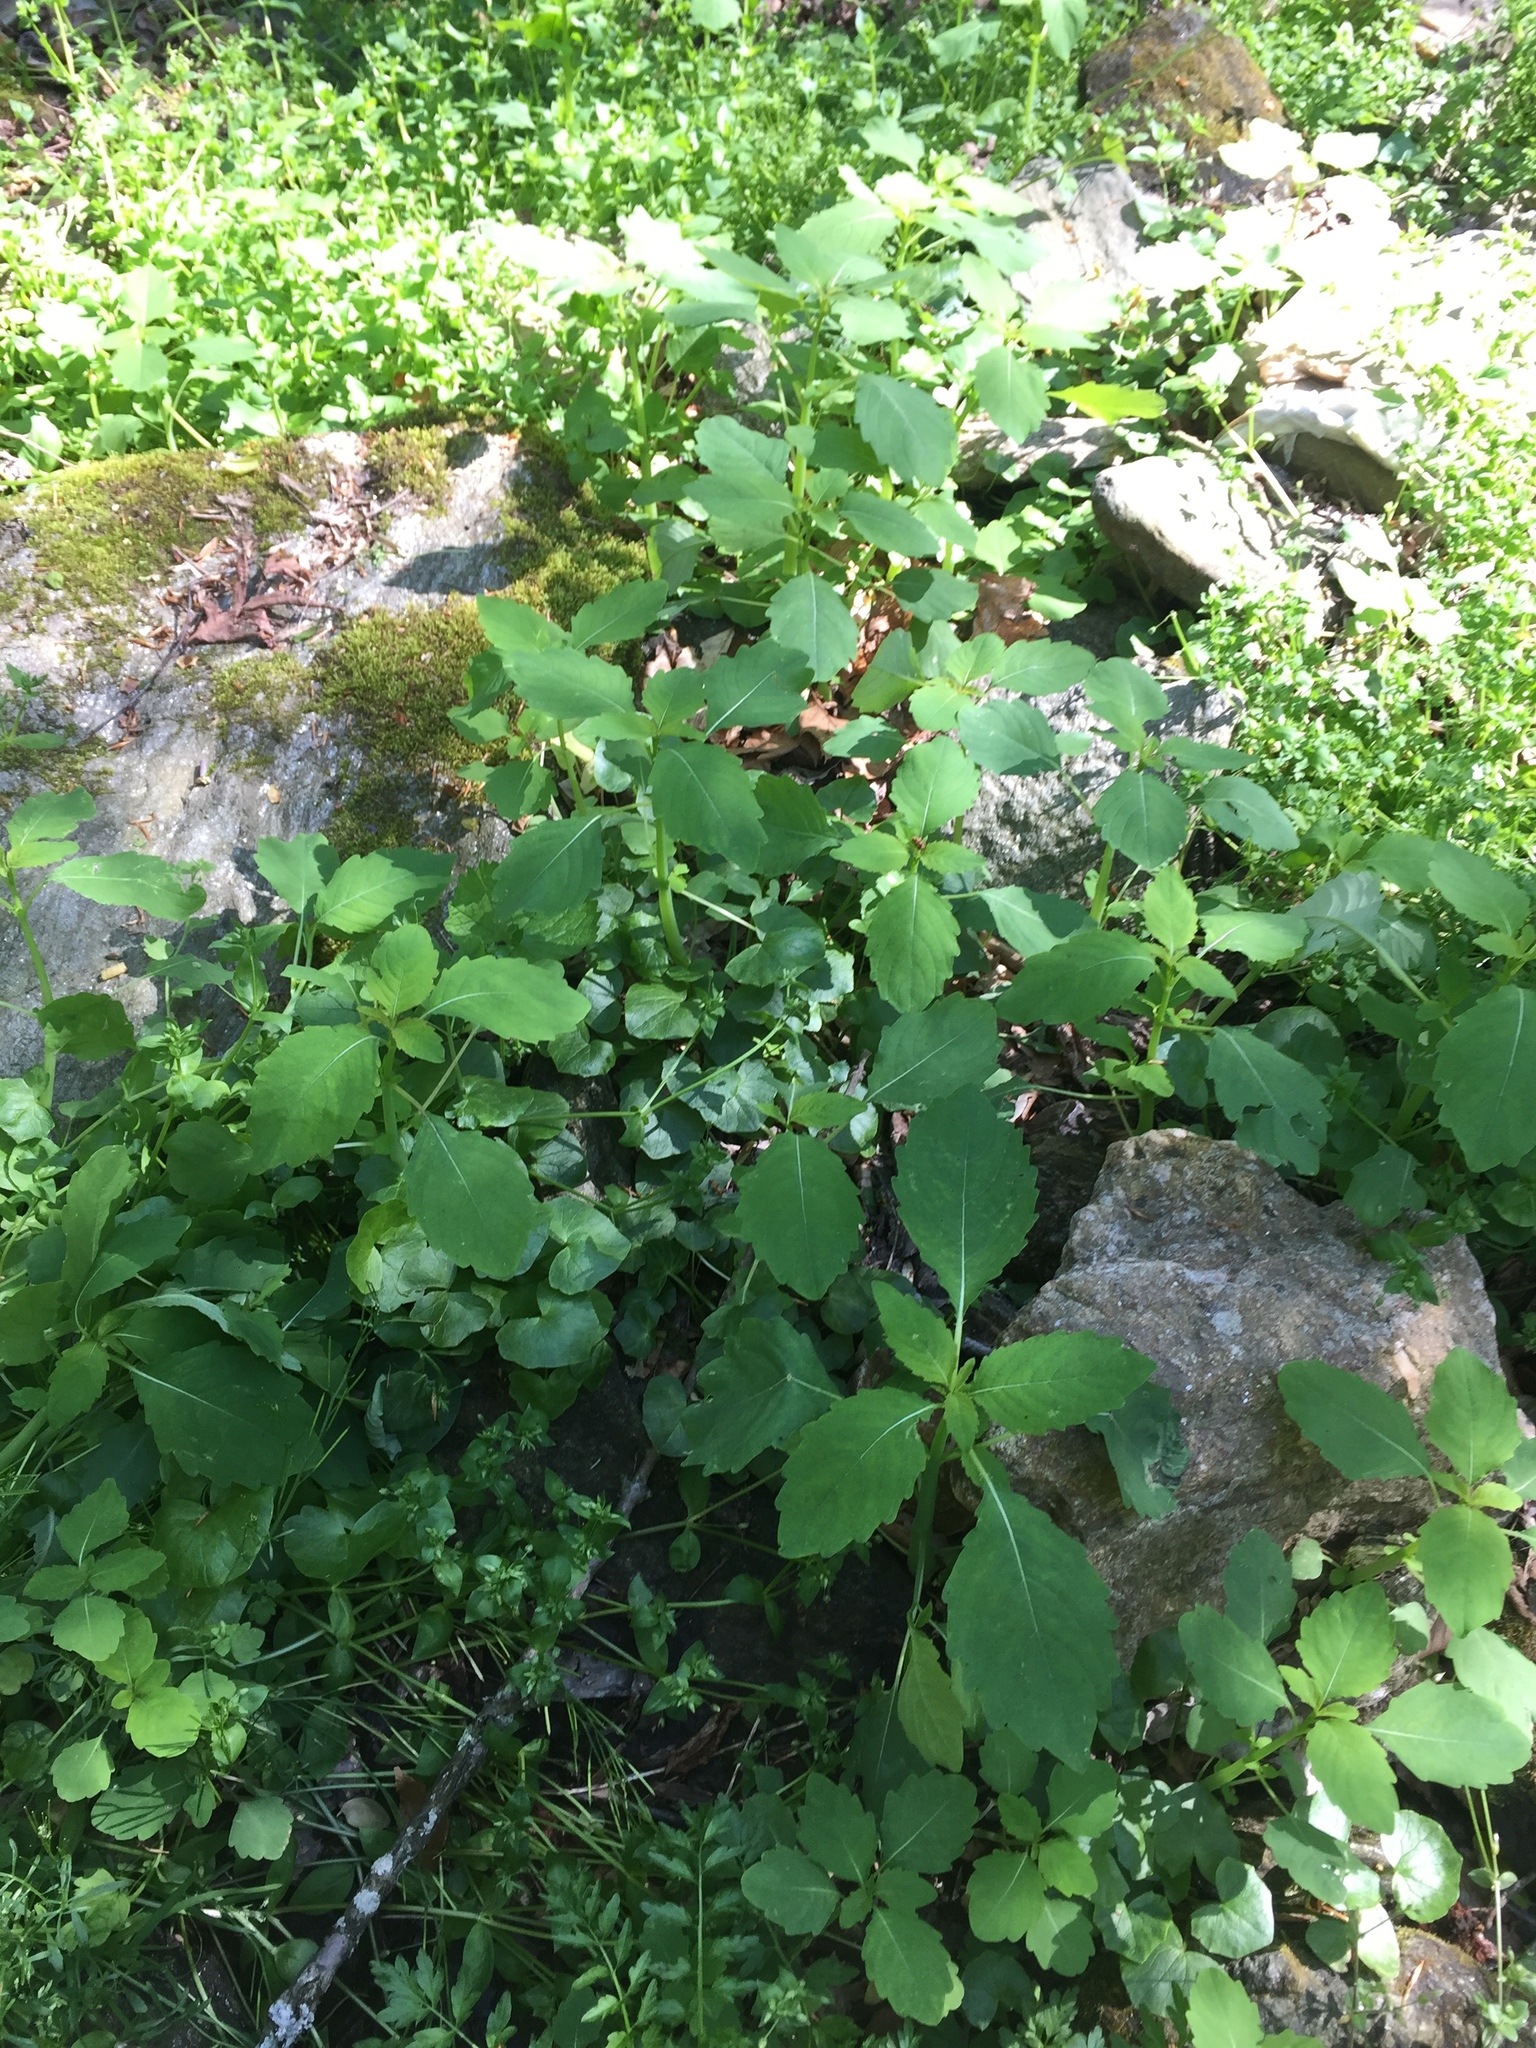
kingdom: Plantae
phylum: Tracheophyta
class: Magnoliopsida
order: Ericales
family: Balsaminaceae
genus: Impatiens
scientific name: Impatiens capensis
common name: Orange balsam
